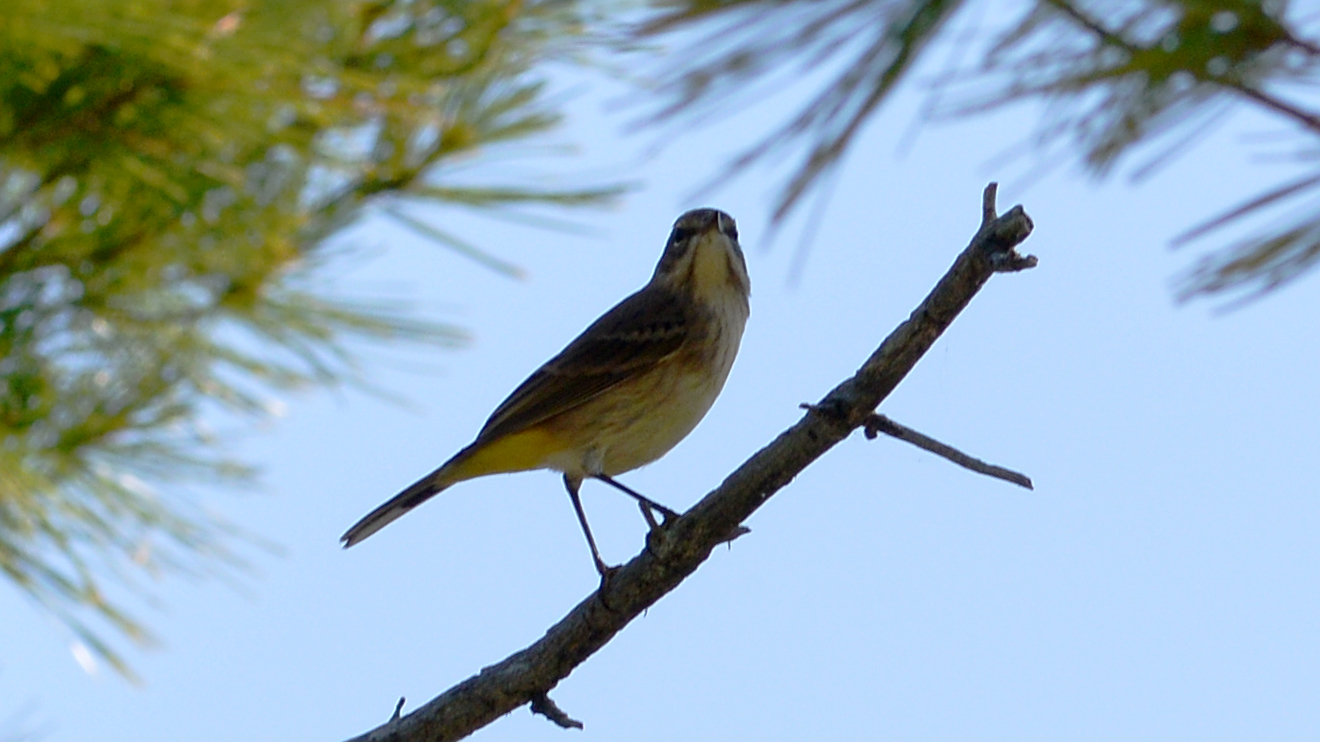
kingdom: Animalia
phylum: Chordata
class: Aves
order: Passeriformes
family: Parulidae
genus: Setophaga
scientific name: Setophaga palmarum
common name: Palm warbler
